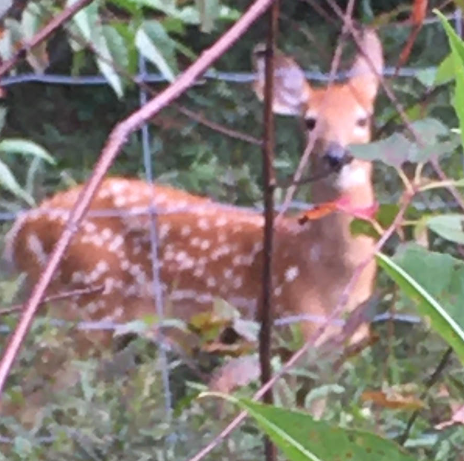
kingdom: Animalia
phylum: Chordata
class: Mammalia
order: Artiodactyla
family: Cervidae
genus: Odocoileus
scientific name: Odocoileus virginianus
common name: White-tailed deer
